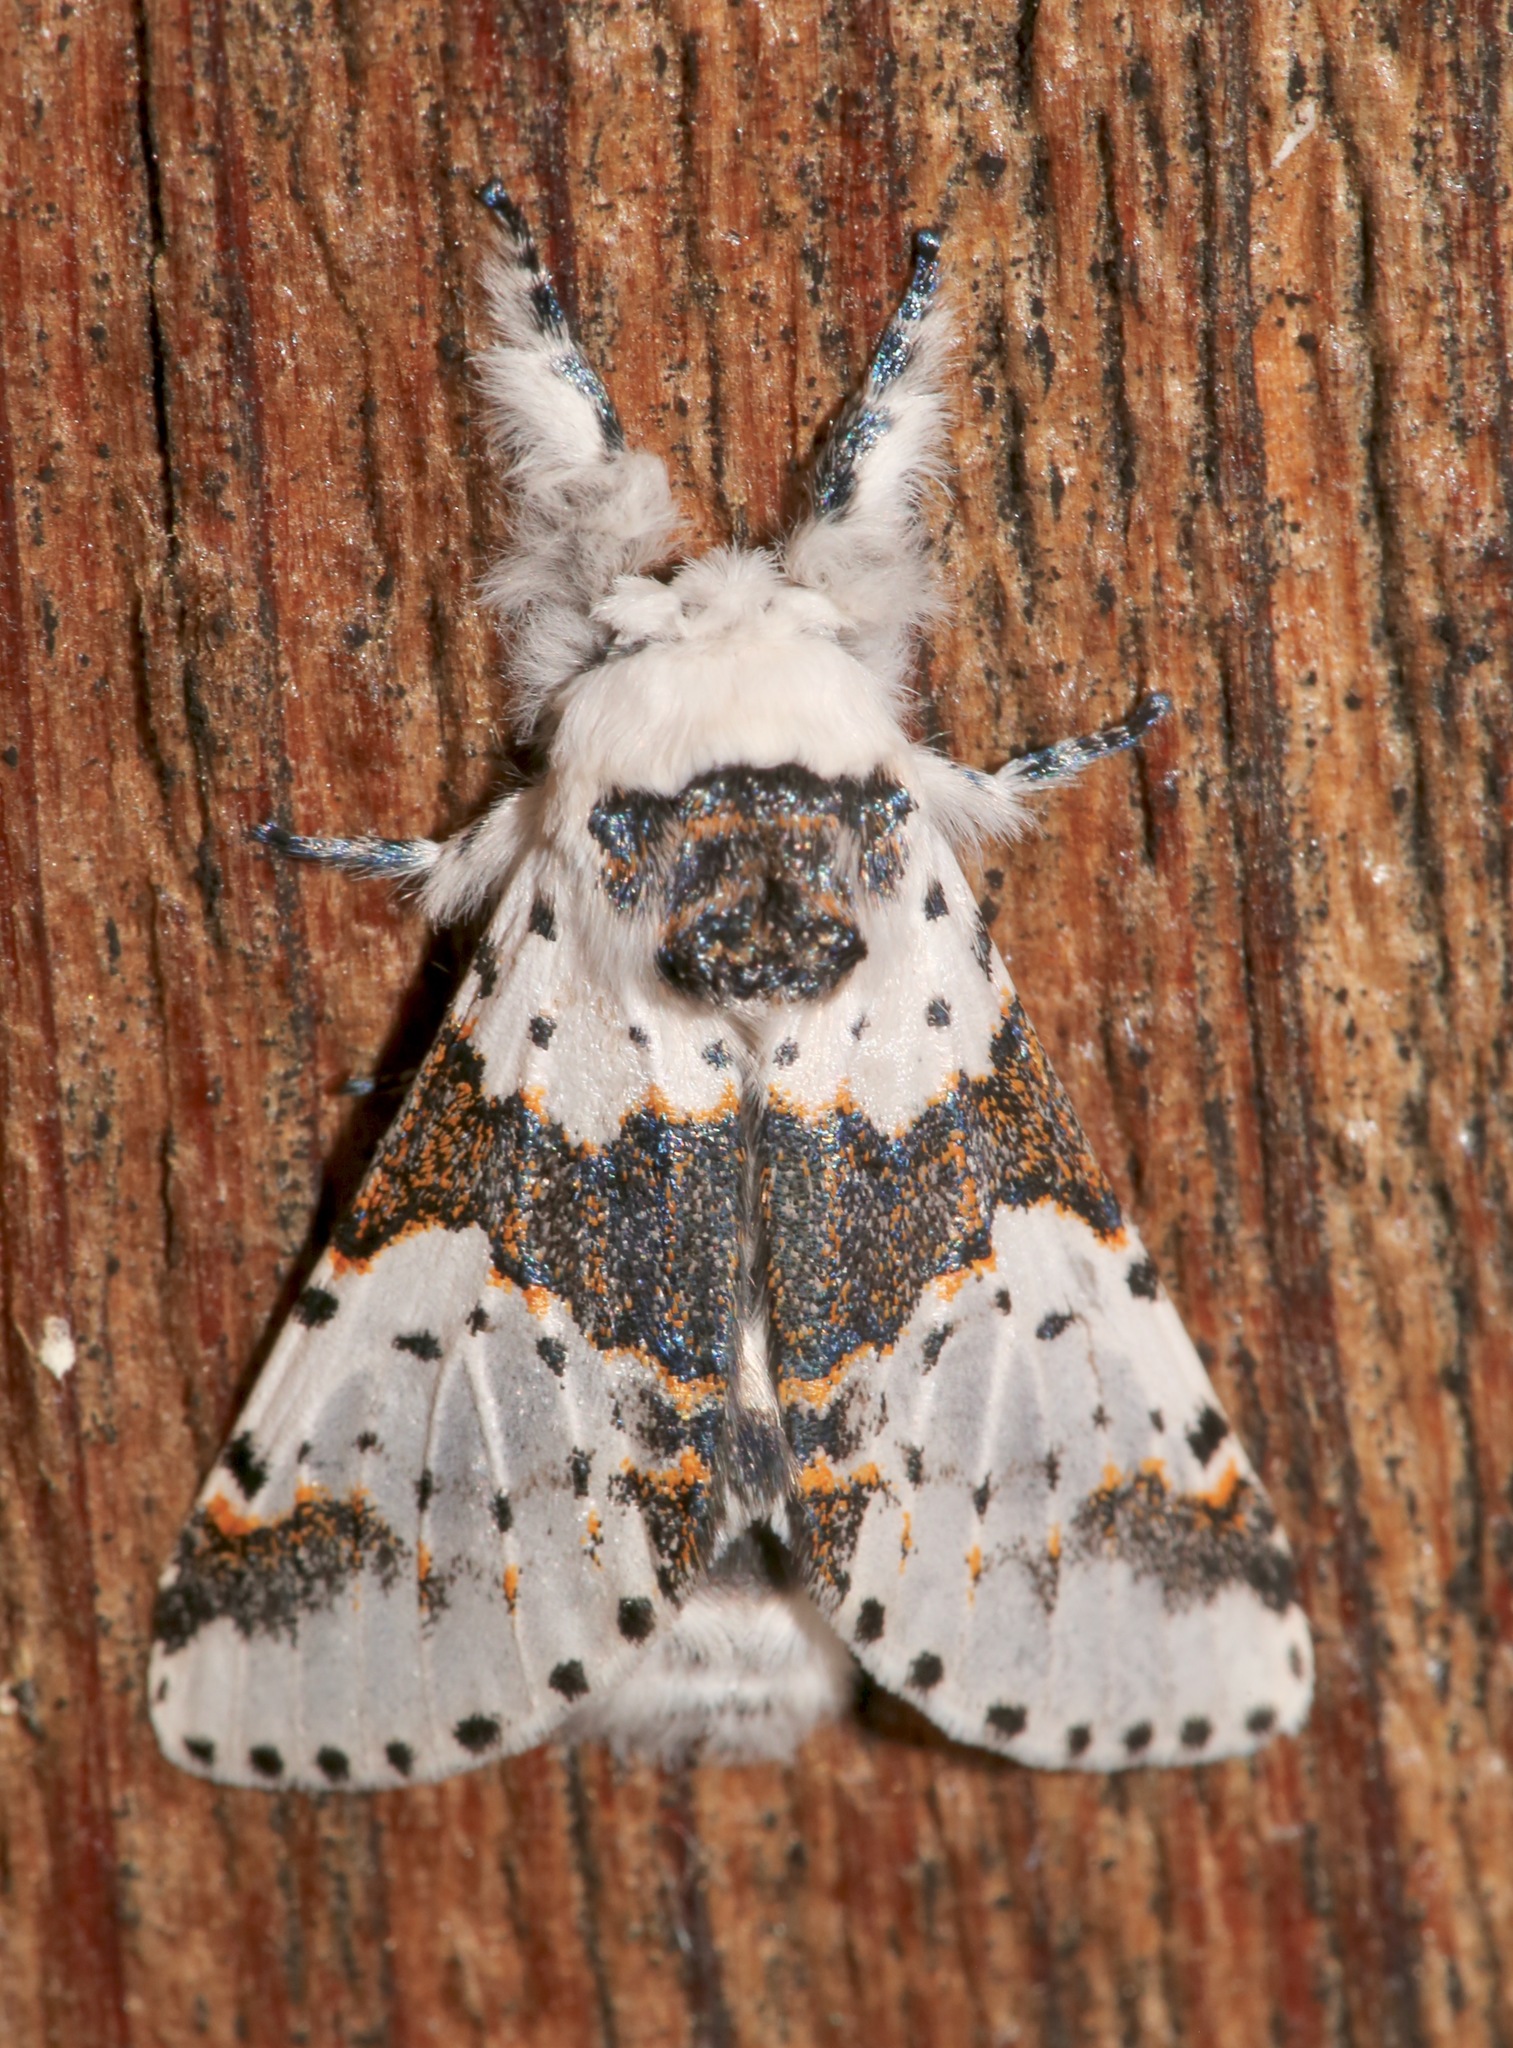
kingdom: Animalia
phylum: Arthropoda
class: Insecta
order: Lepidoptera
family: Notodontidae
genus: Furcula
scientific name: Furcula borealis
